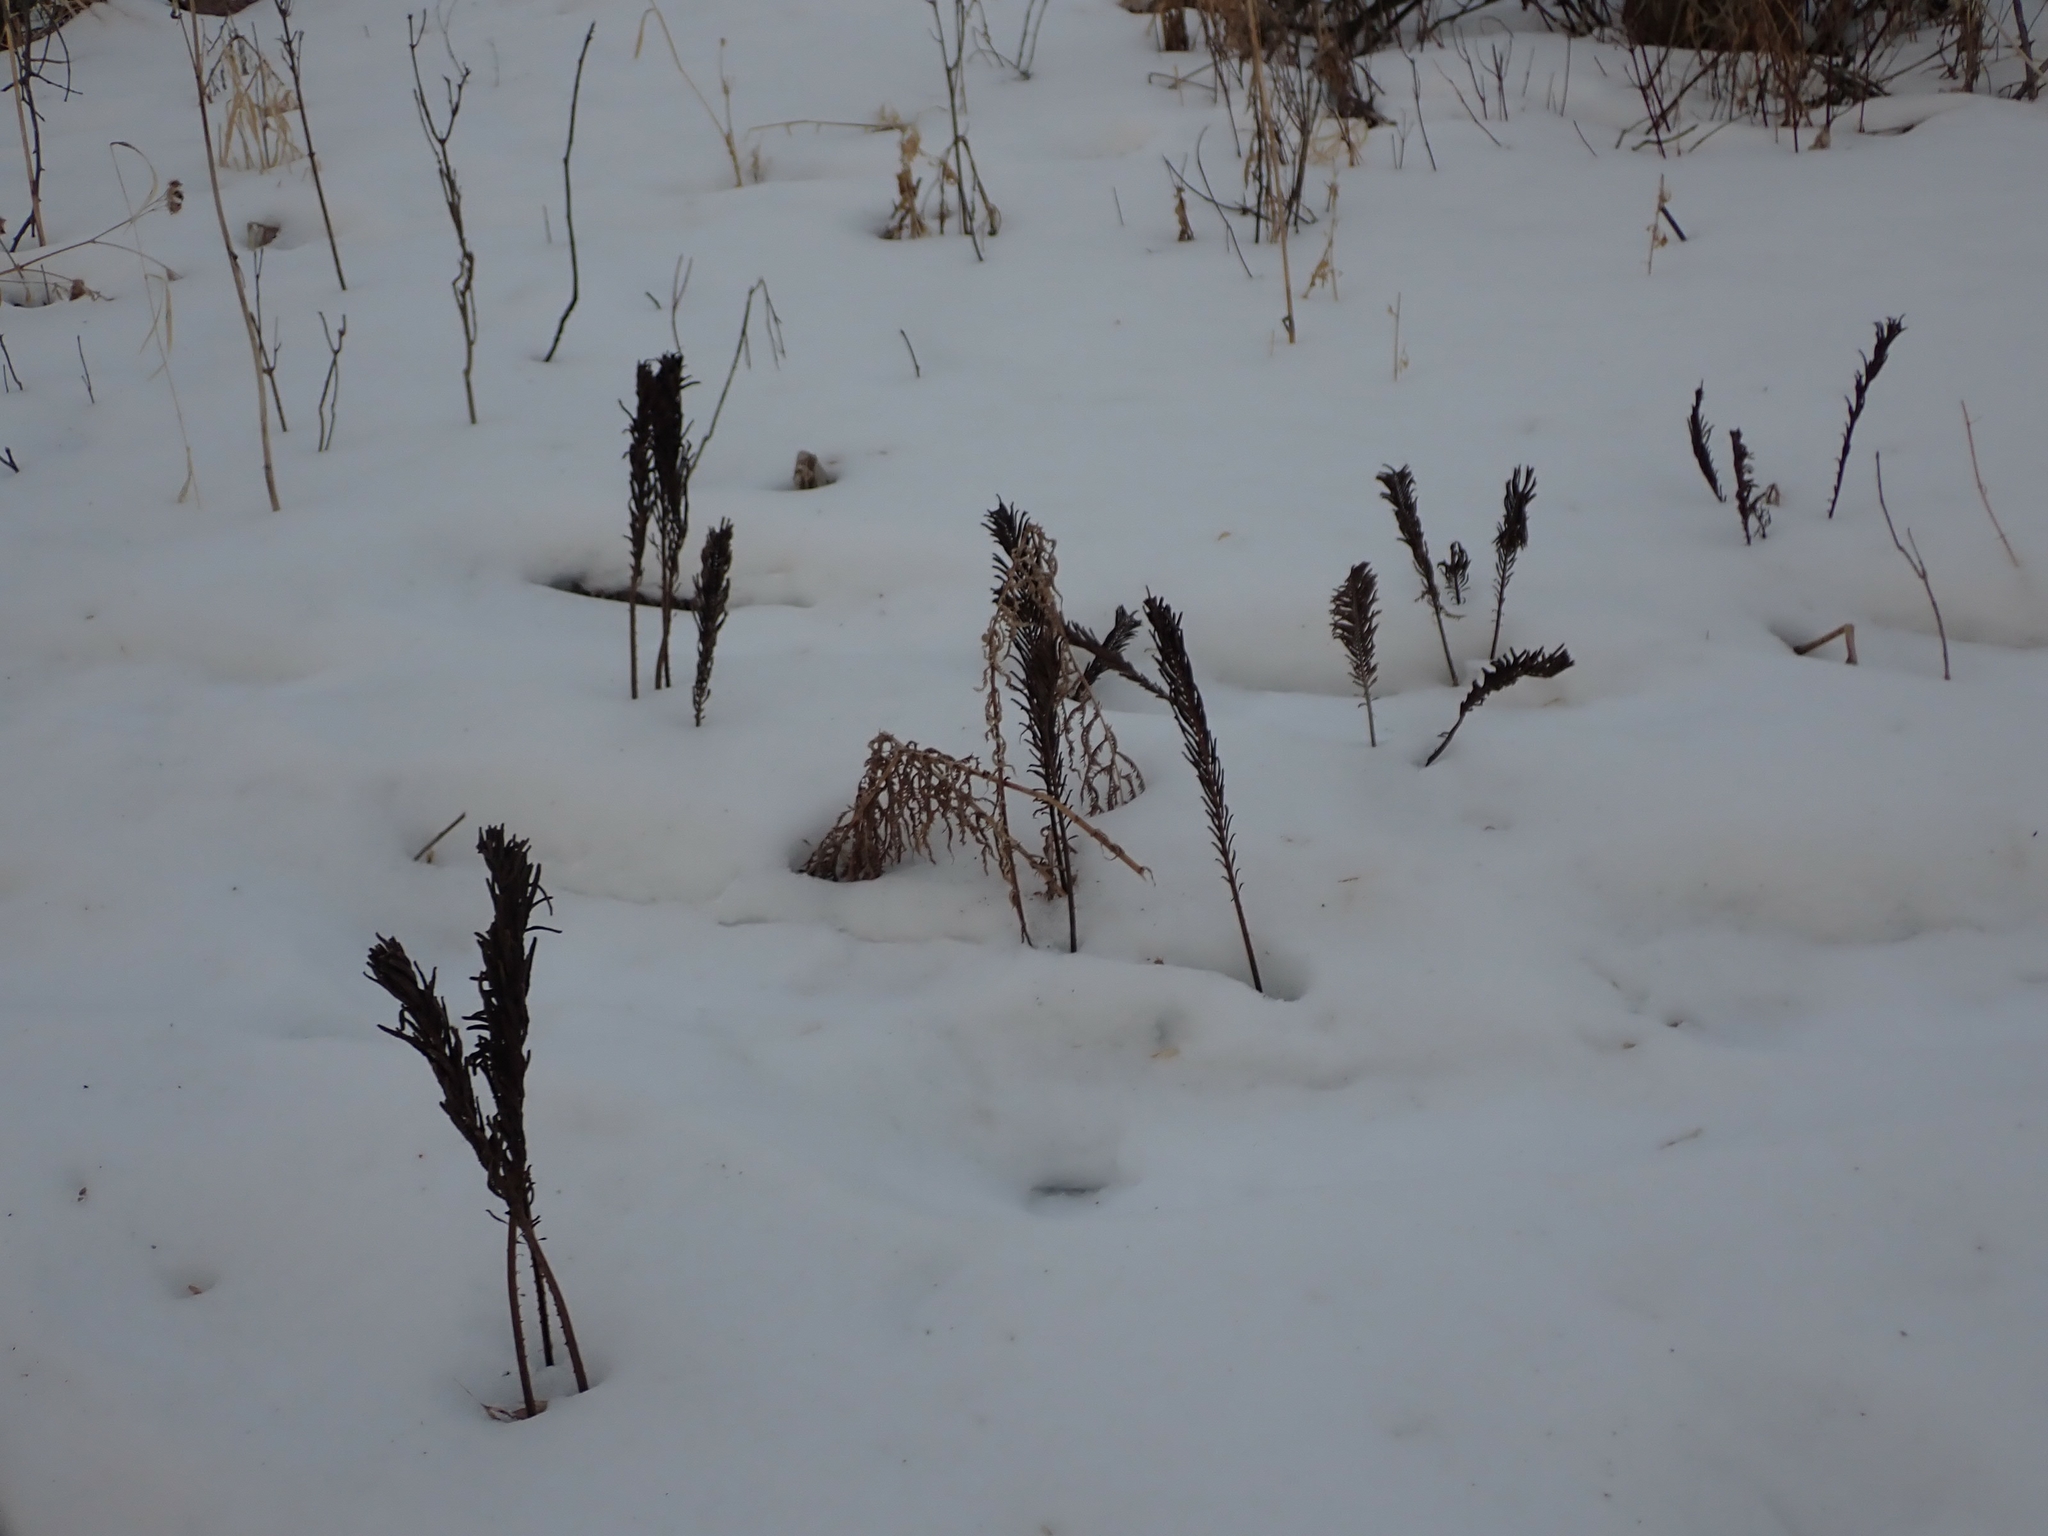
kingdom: Plantae
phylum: Tracheophyta
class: Polypodiopsida
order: Polypodiales
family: Onocleaceae
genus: Matteuccia
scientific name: Matteuccia struthiopteris
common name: Ostrich fern
